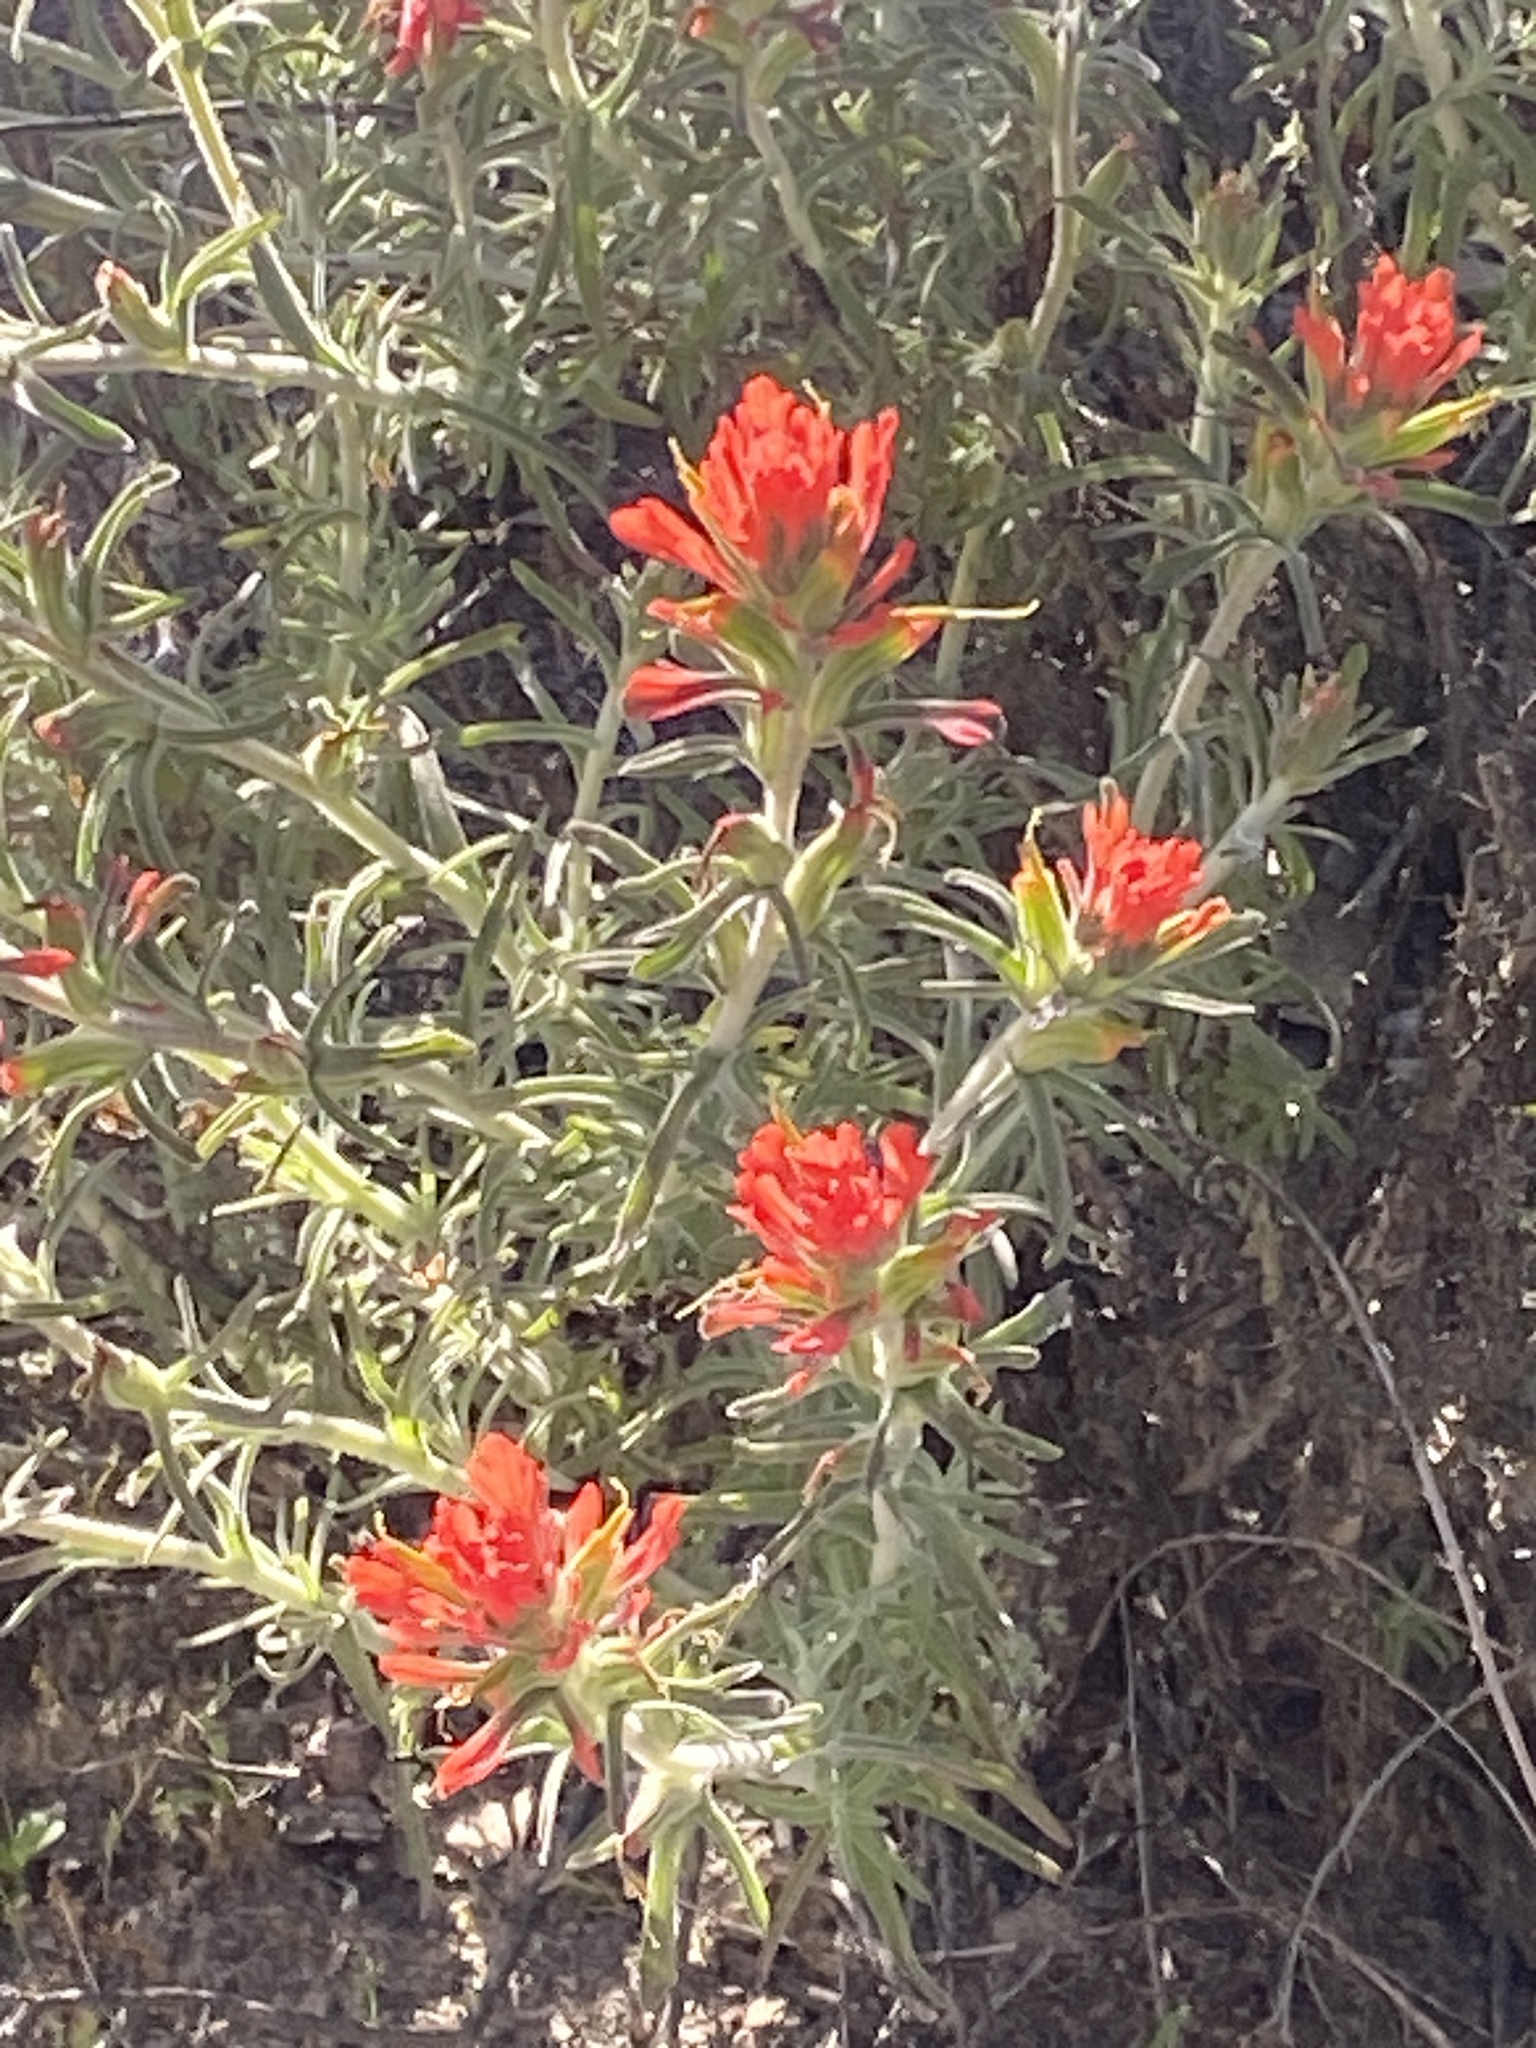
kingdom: Plantae
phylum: Tracheophyta
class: Magnoliopsida
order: Lamiales
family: Orobanchaceae
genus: Castilleja
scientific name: Castilleja foliolosa
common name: Woolly indian paintbrush
